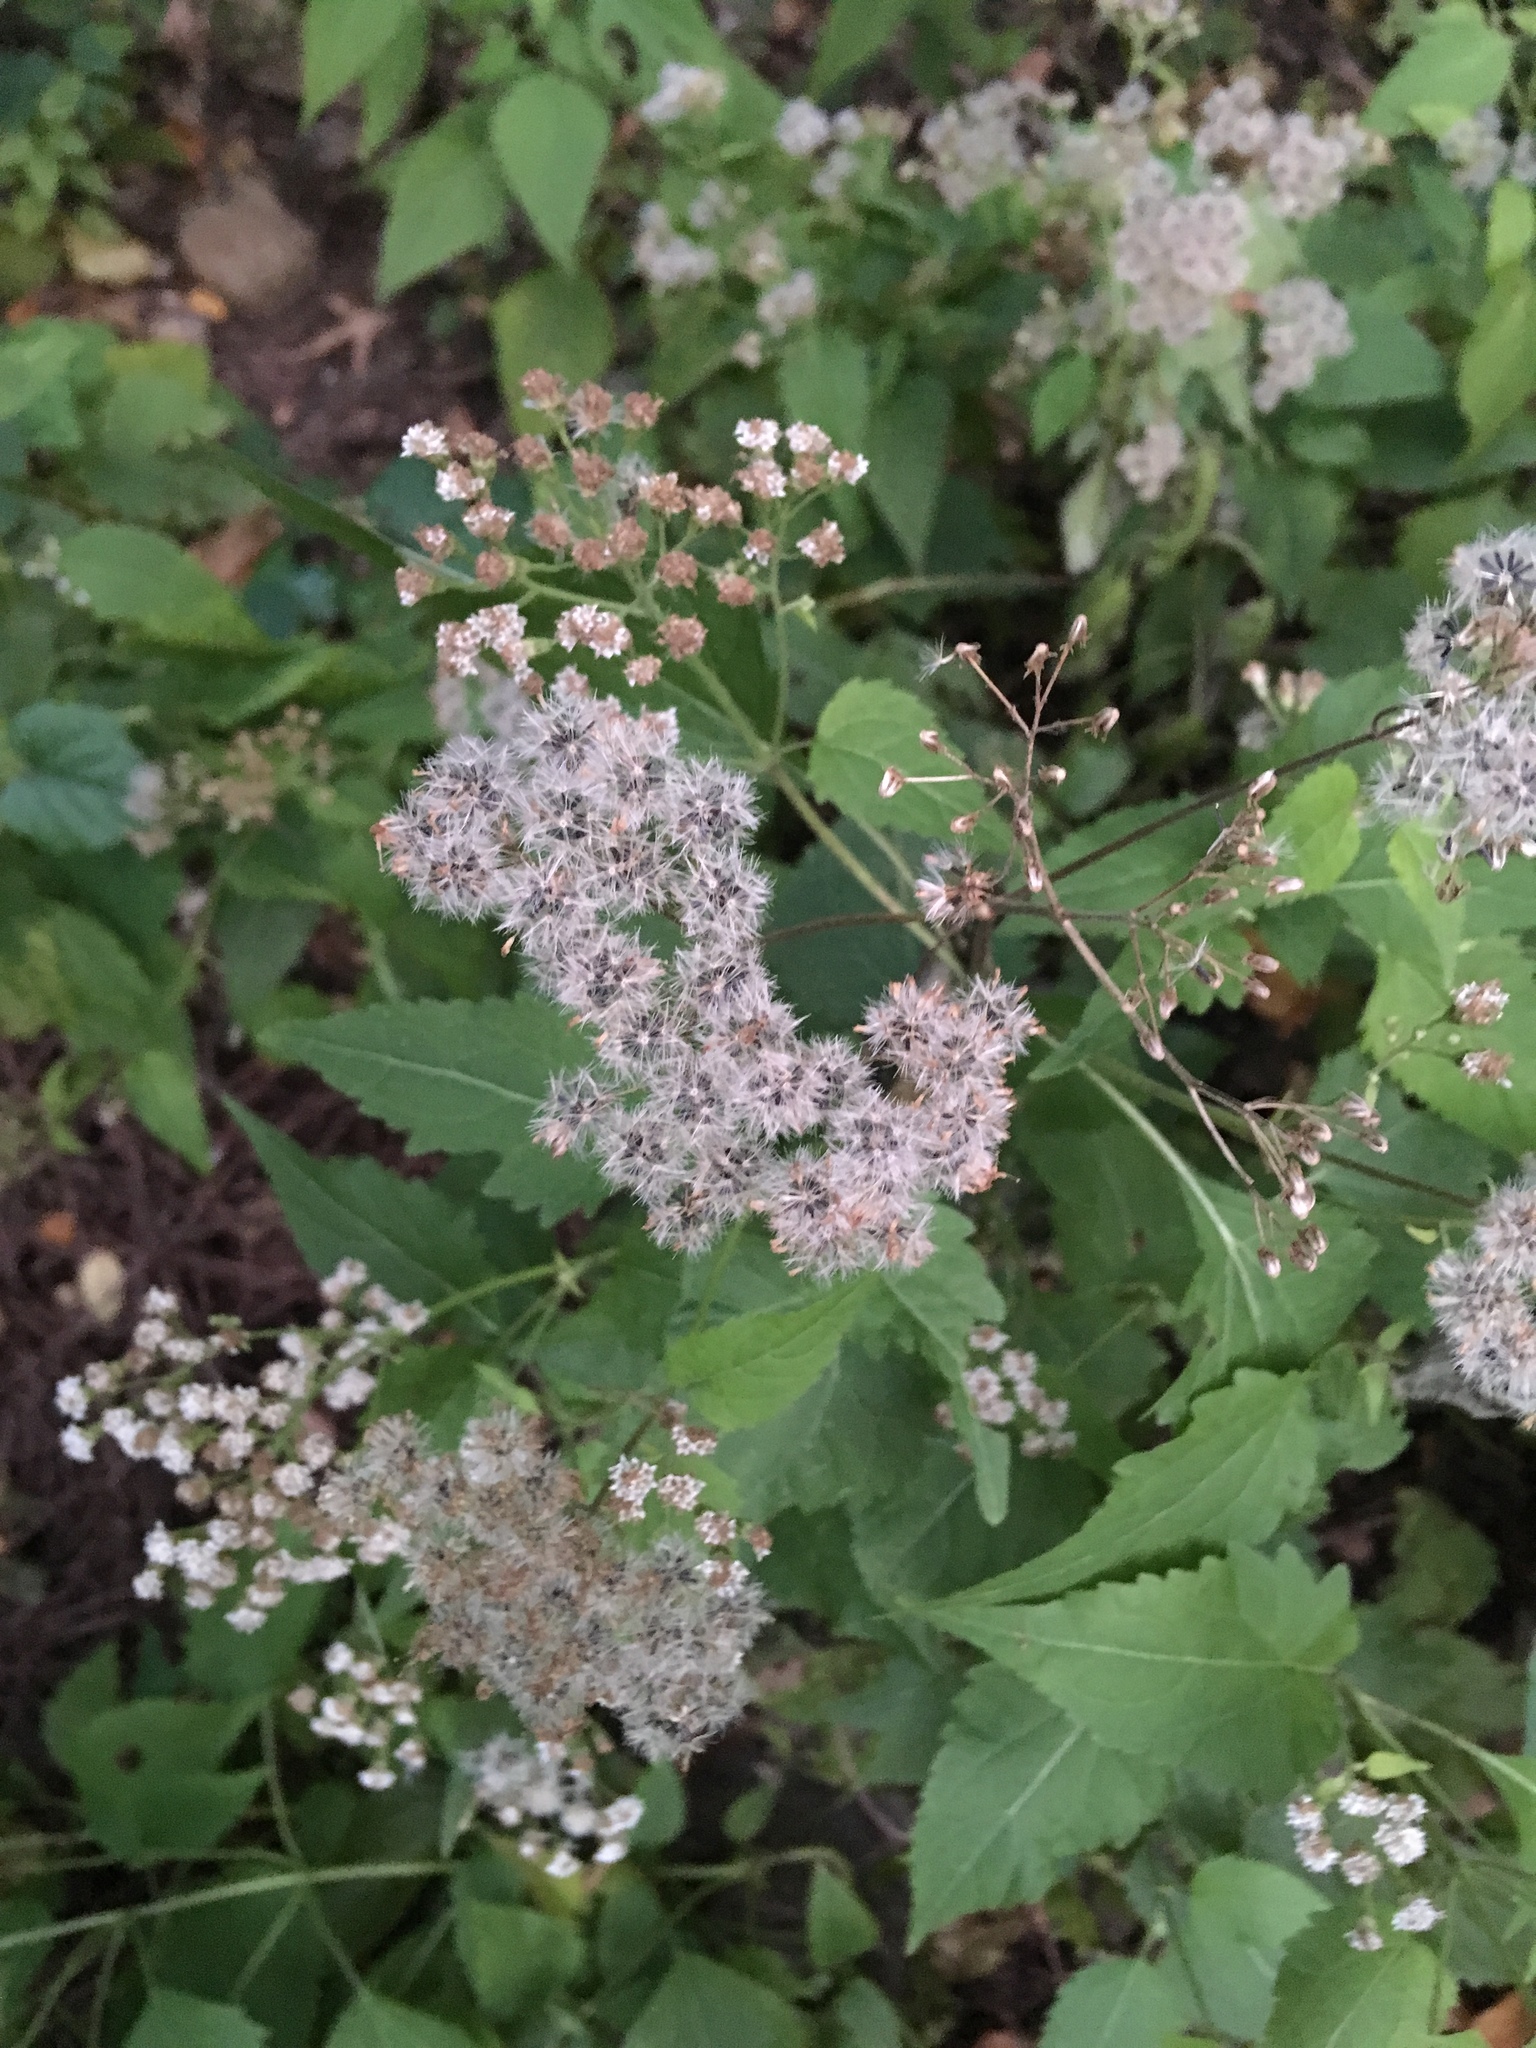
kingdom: Plantae
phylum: Tracheophyta
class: Magnoliopsida
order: Asterales
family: Asteraceae
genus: Ageratina
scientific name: Ageratina altissima
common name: White snakeroot
